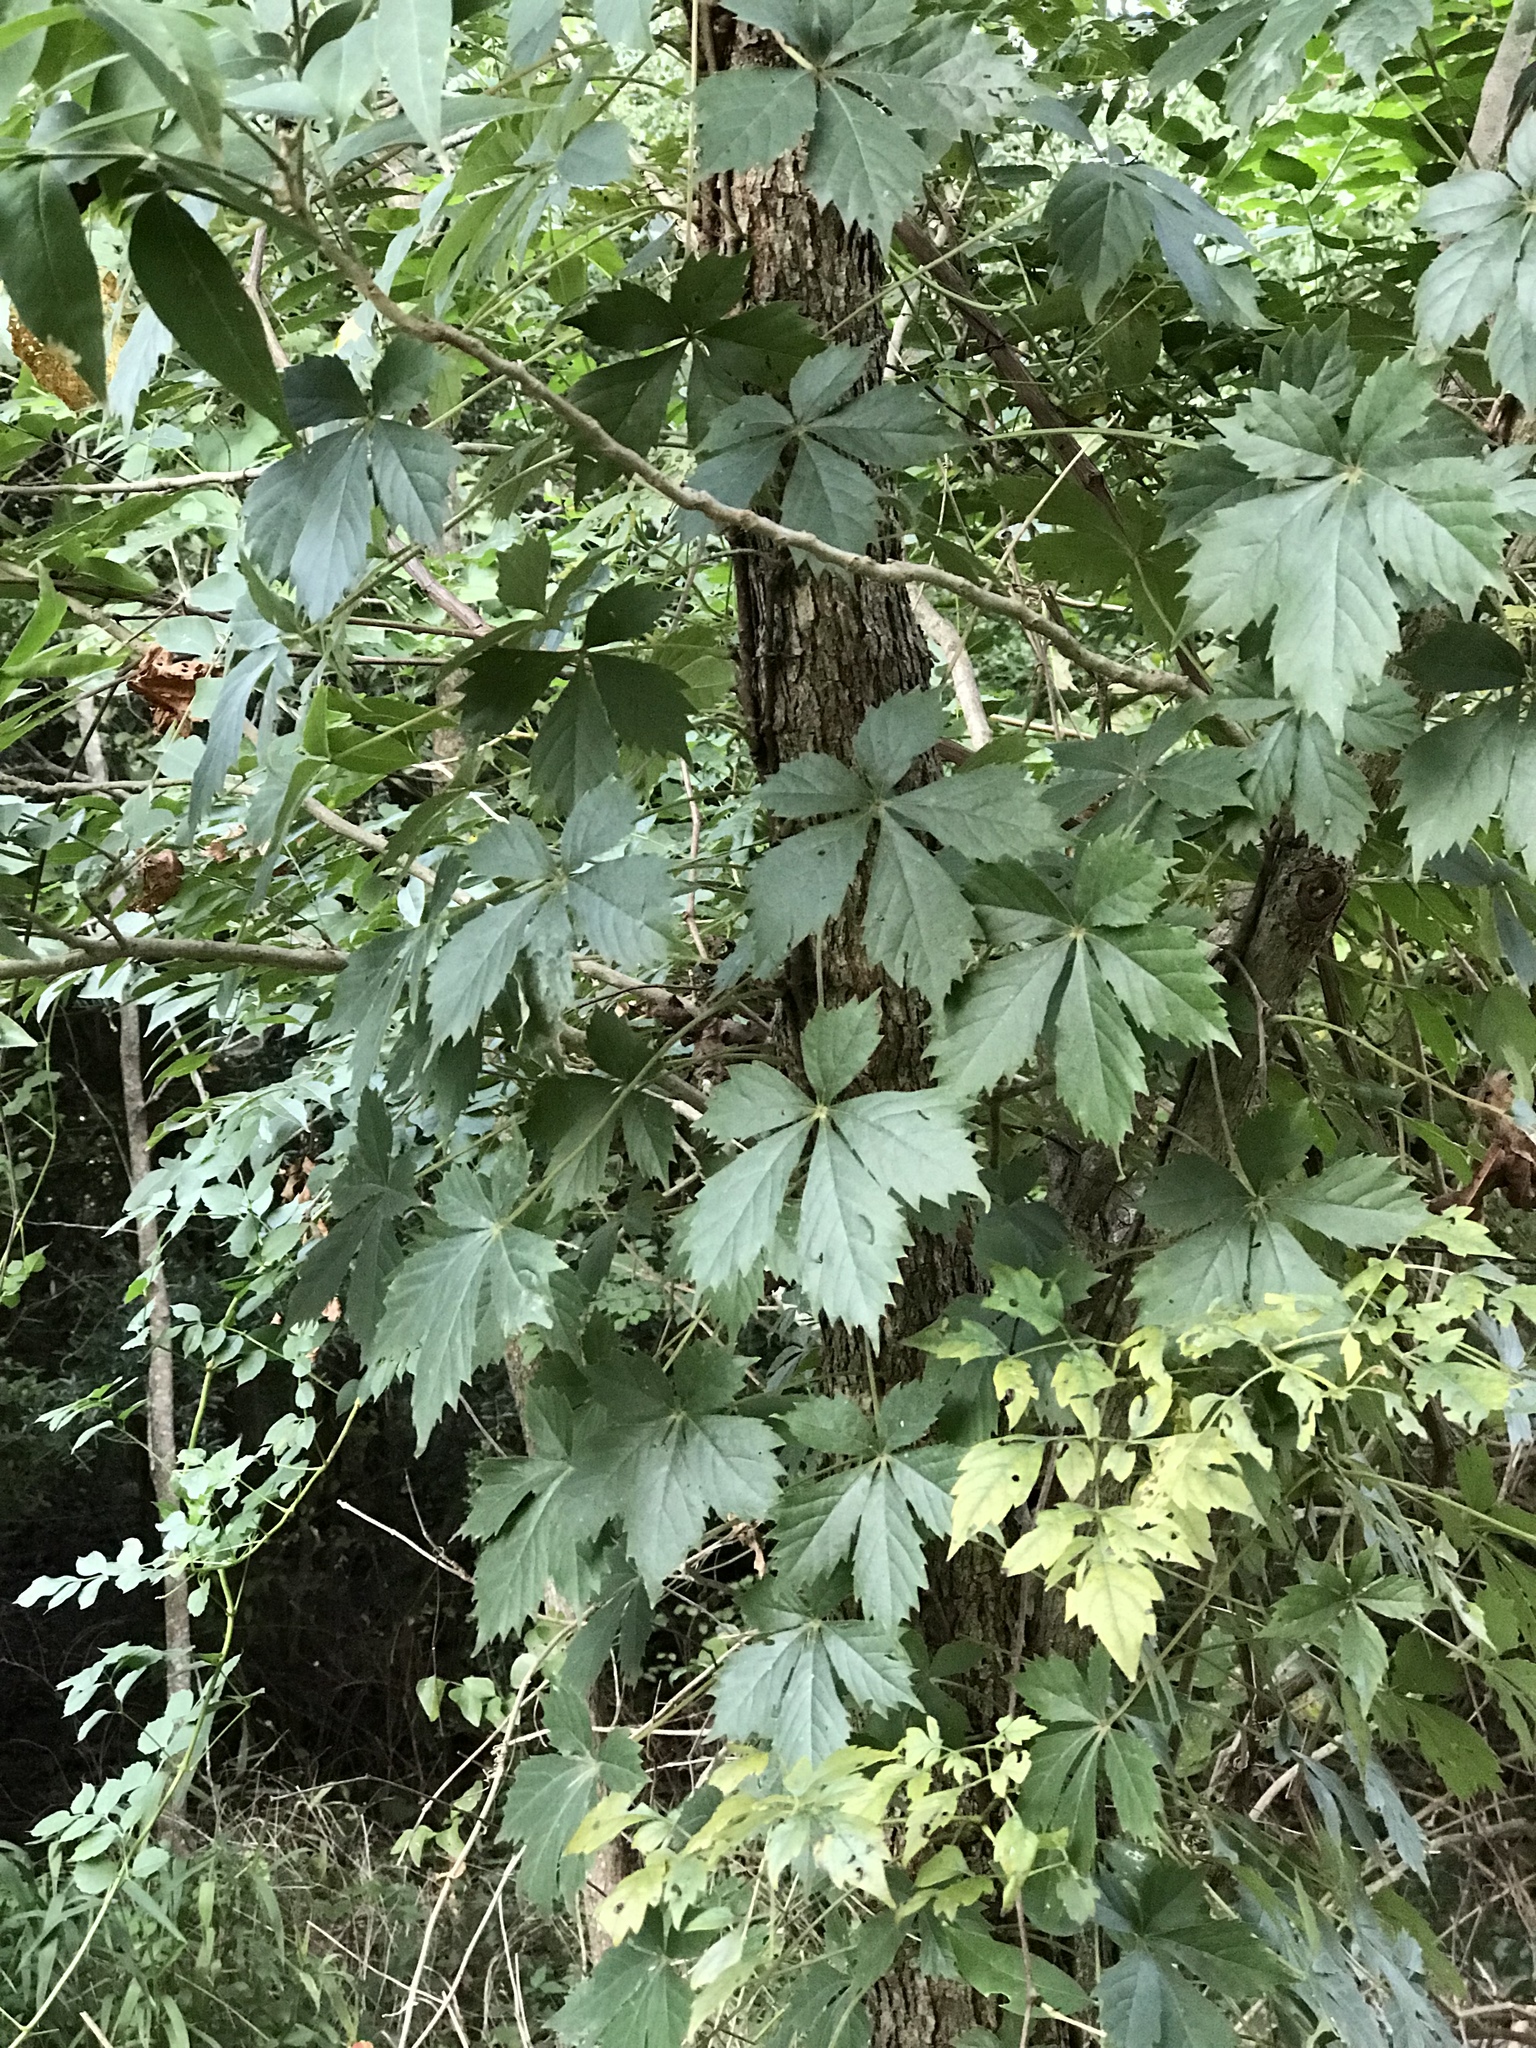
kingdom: Plantae
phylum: Tracheophyta
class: Magnoliopsida
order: Vitales
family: Vitaceae
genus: Parthenocissus
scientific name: Parthenocissus quinquefolia
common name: Virginia-creeper
